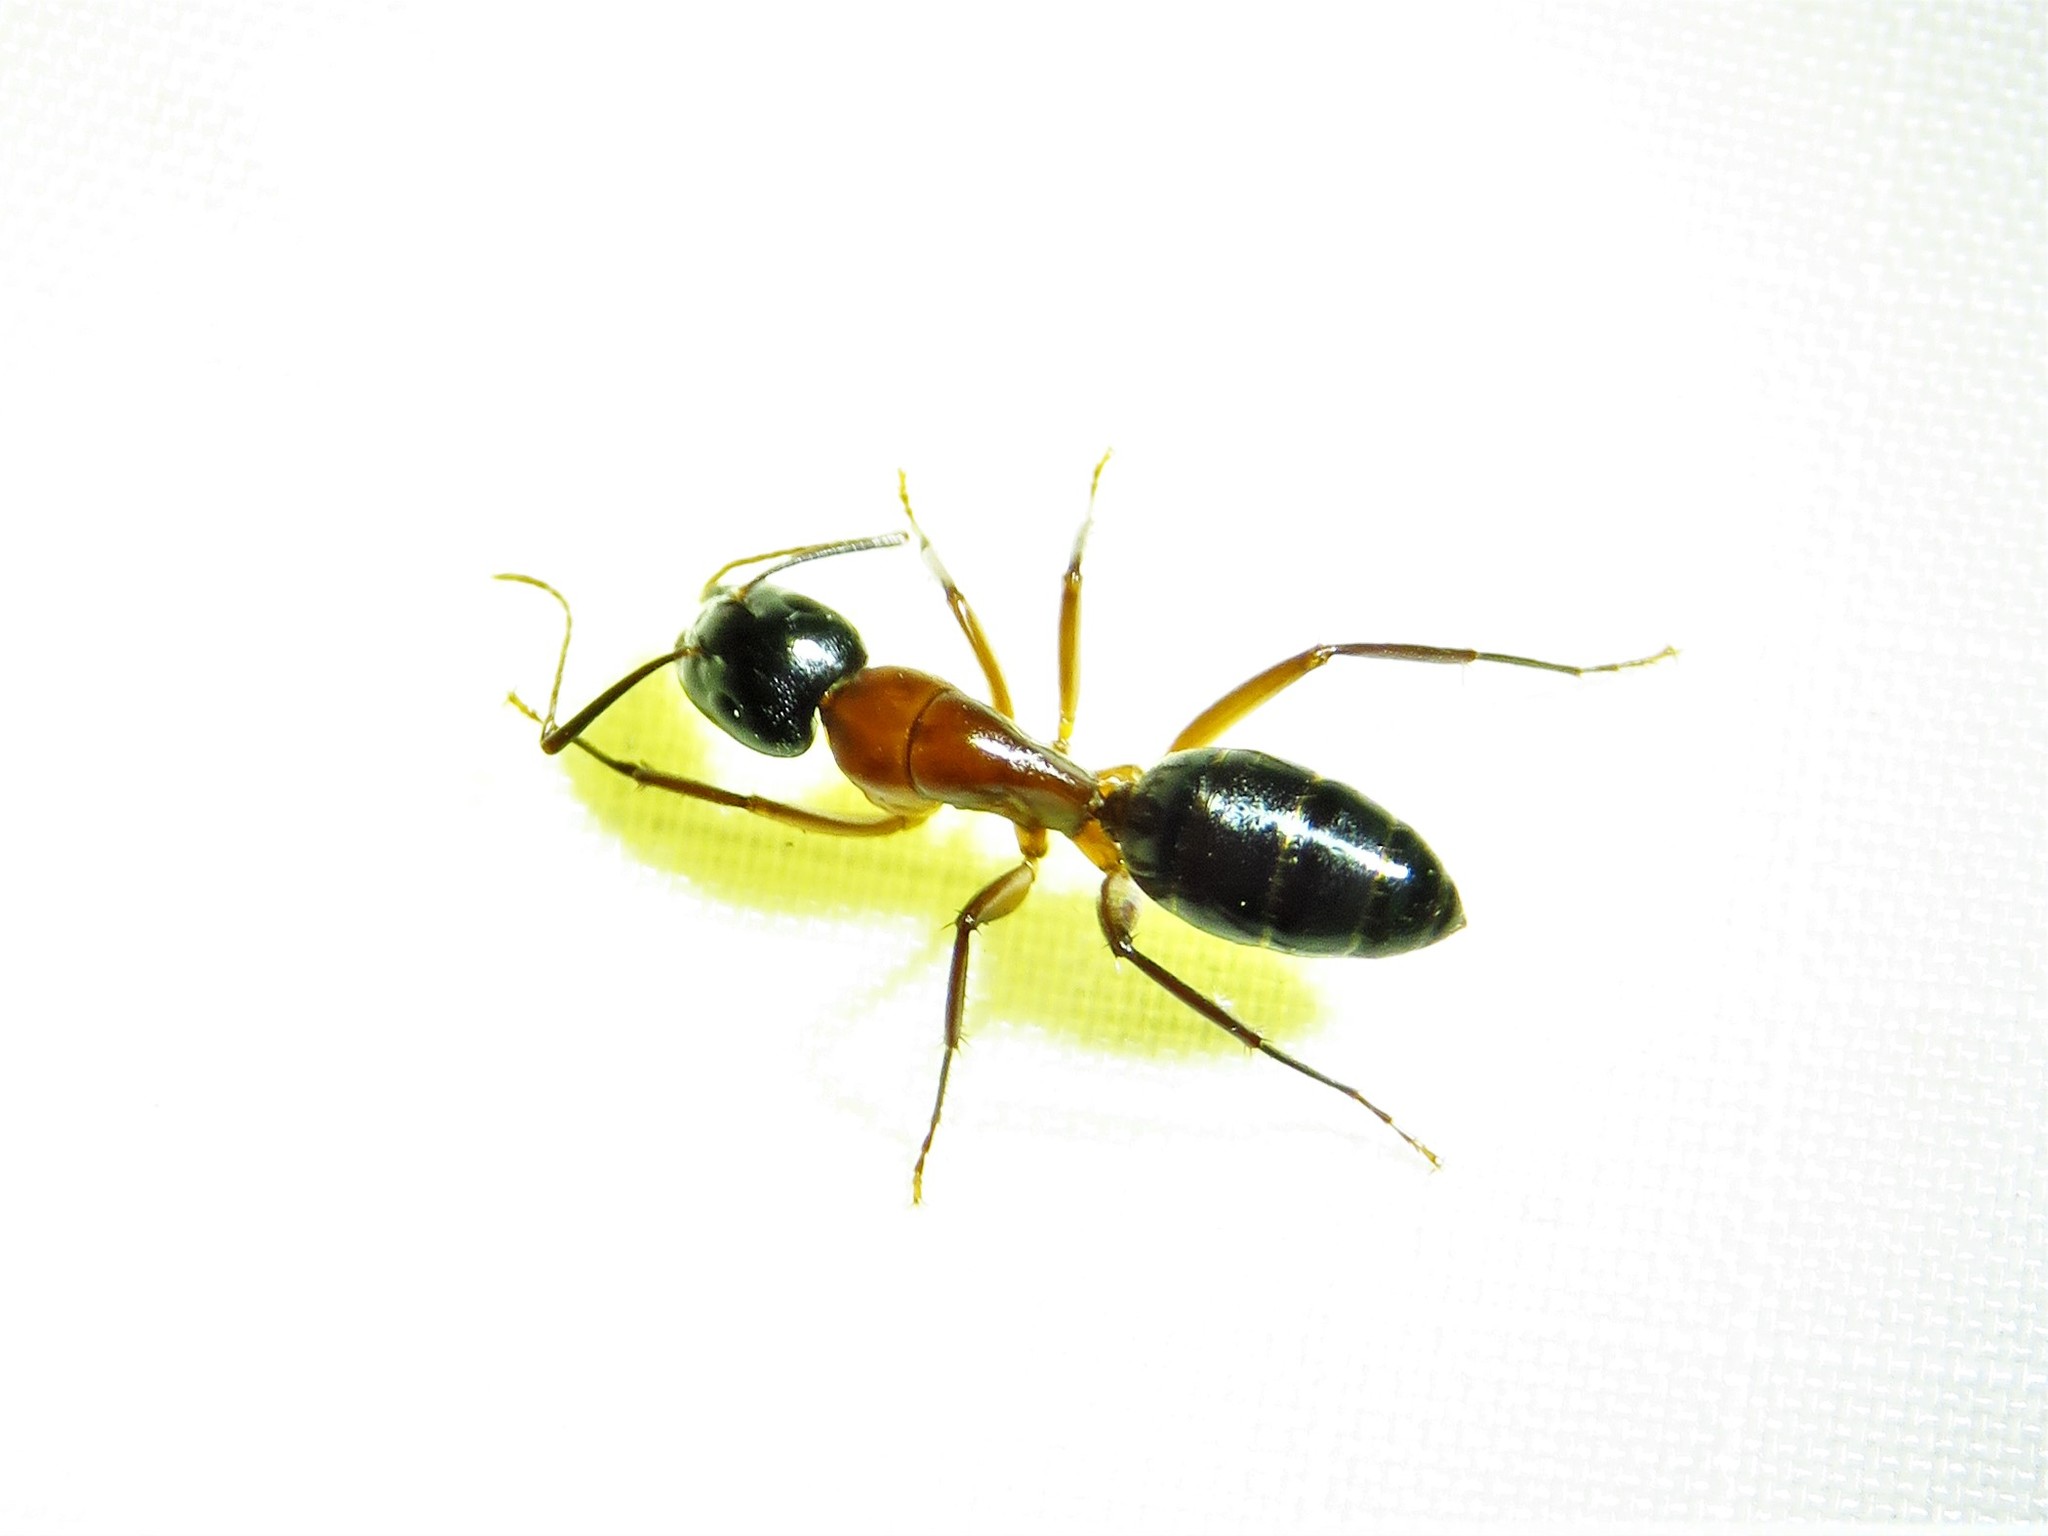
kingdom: Animalia
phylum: Arthropoda
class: Insecta
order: Hymenoptera
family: Formicidae
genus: Camponotus
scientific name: Camponotus texanus
